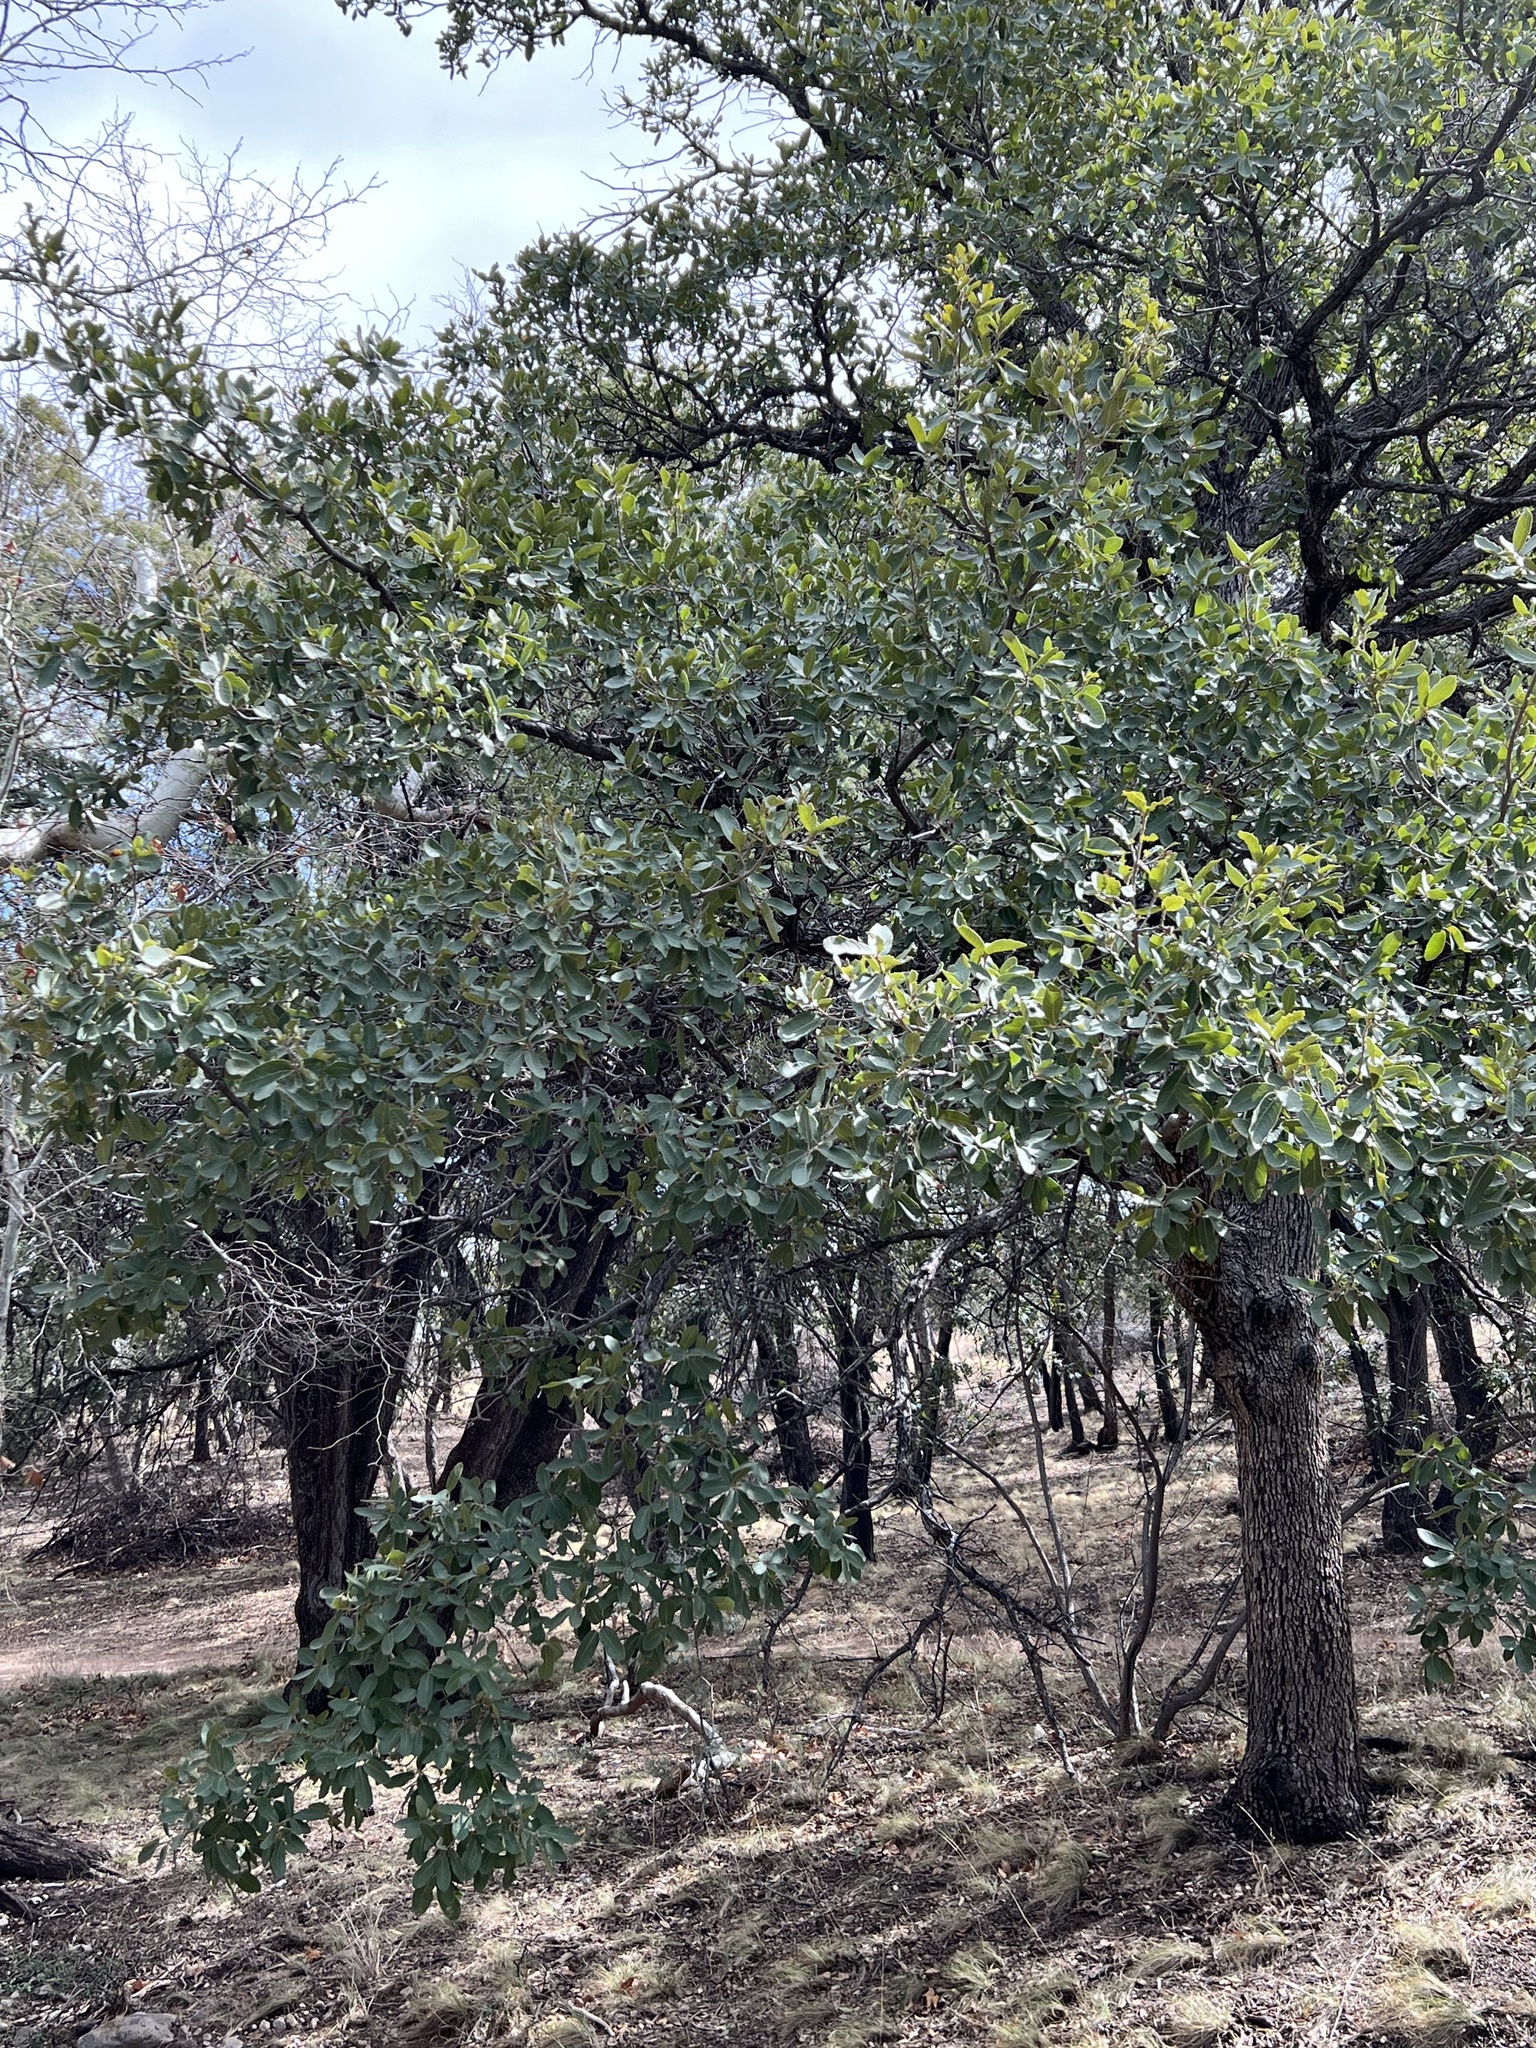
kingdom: Plantae
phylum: Tracheophyta
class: Magnoliopsida
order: Fagales
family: Fagaceae
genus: Quercus
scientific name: Quercus oblongifolia
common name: Mexican blue oak
